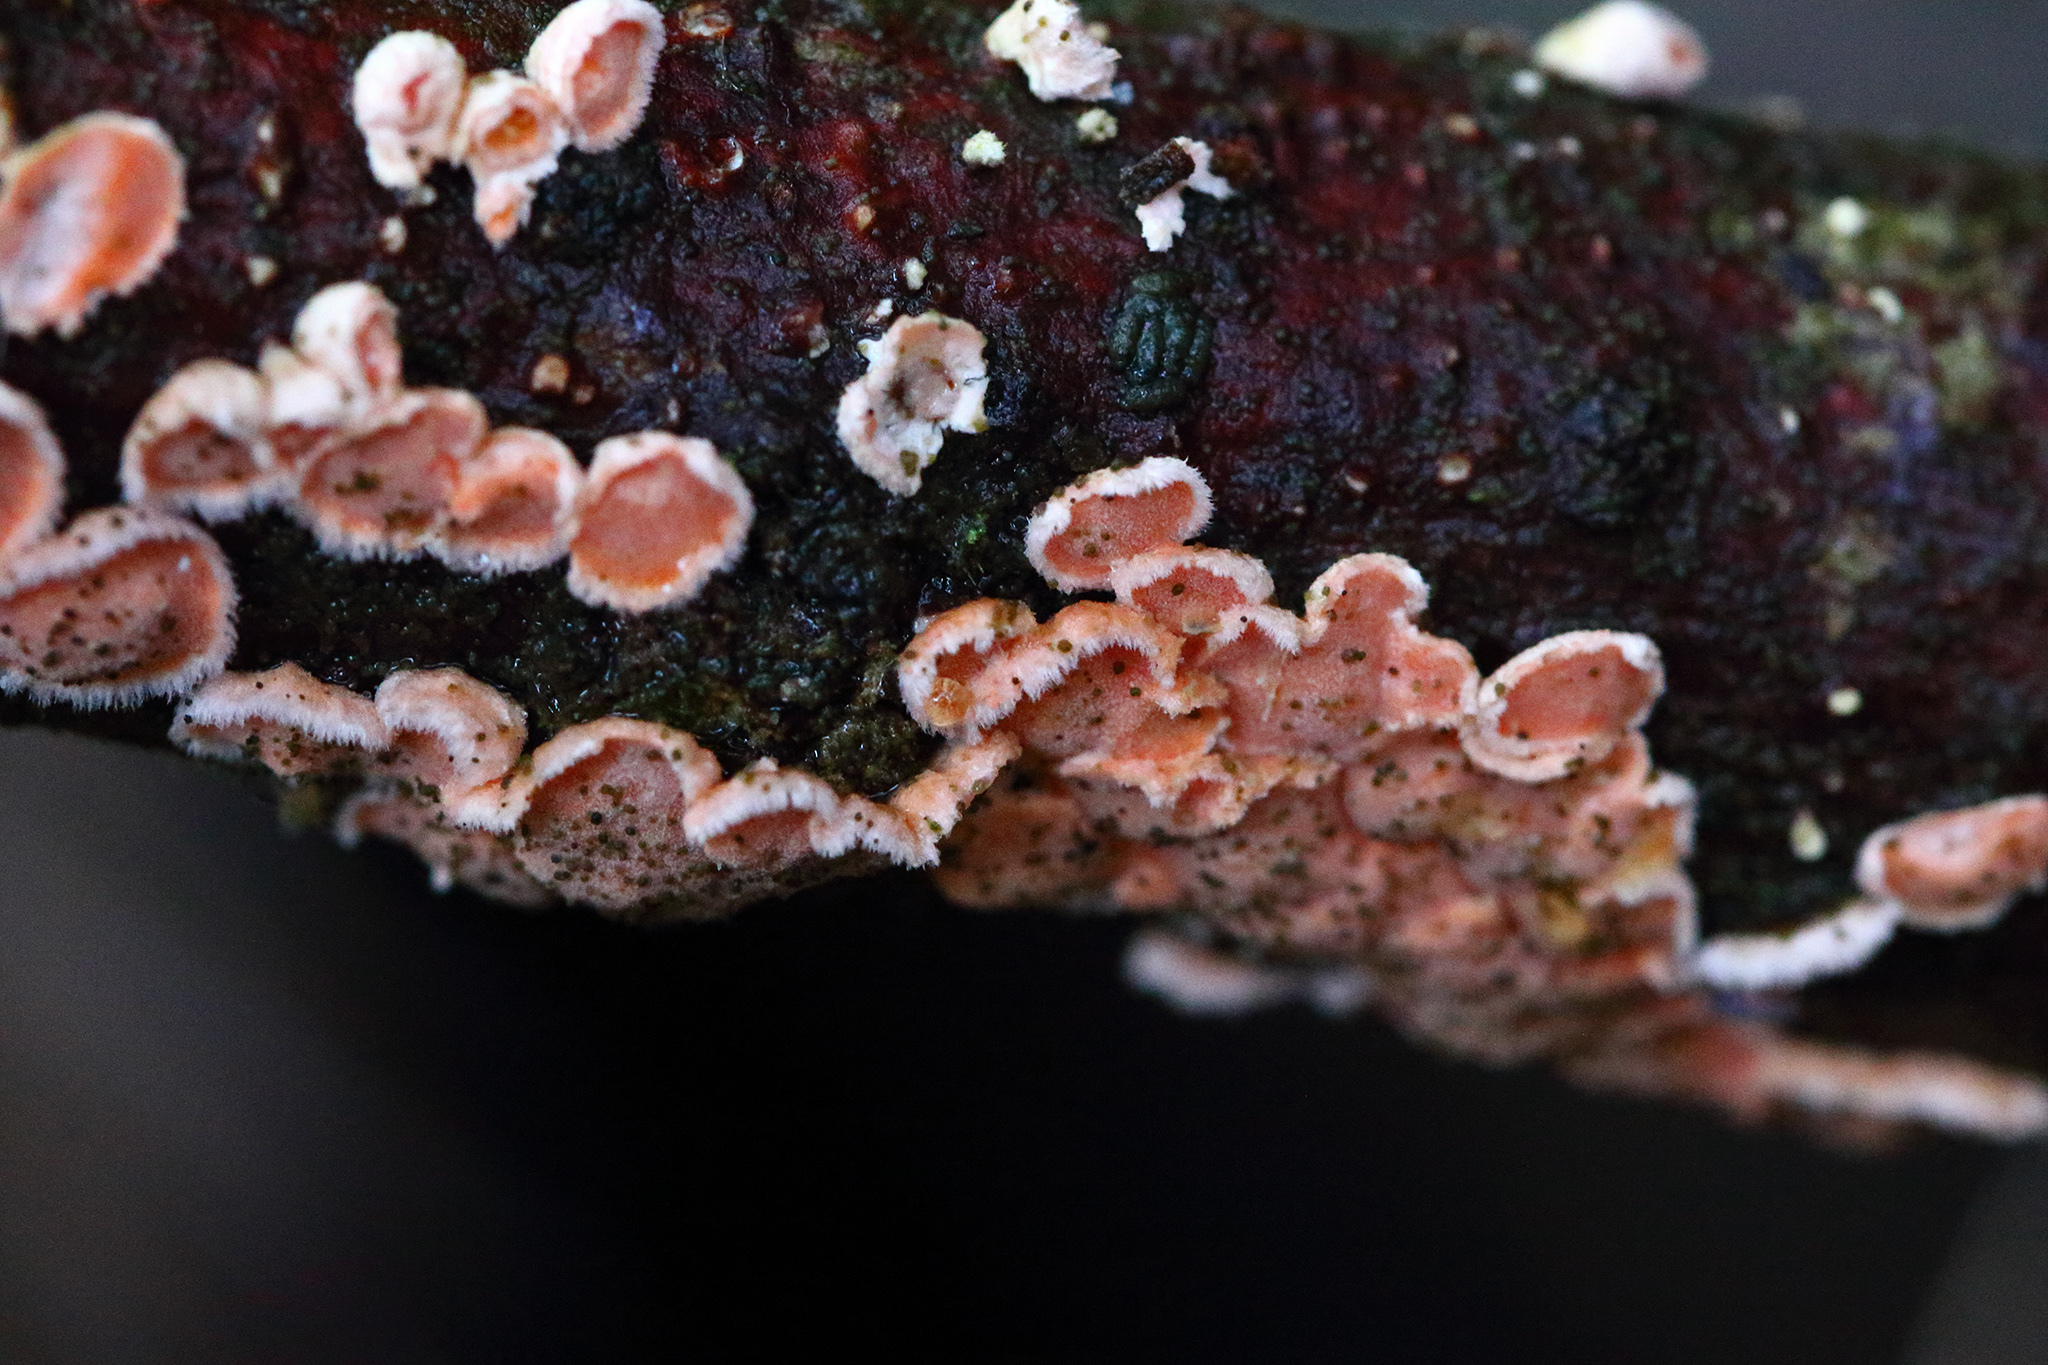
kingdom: Fungi
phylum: Basidiomycota
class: Agaricomycetes
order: Russulales
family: Stereaceae
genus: Aleurodiscus
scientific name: Aleurodiscus amorphus
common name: Orange discus
